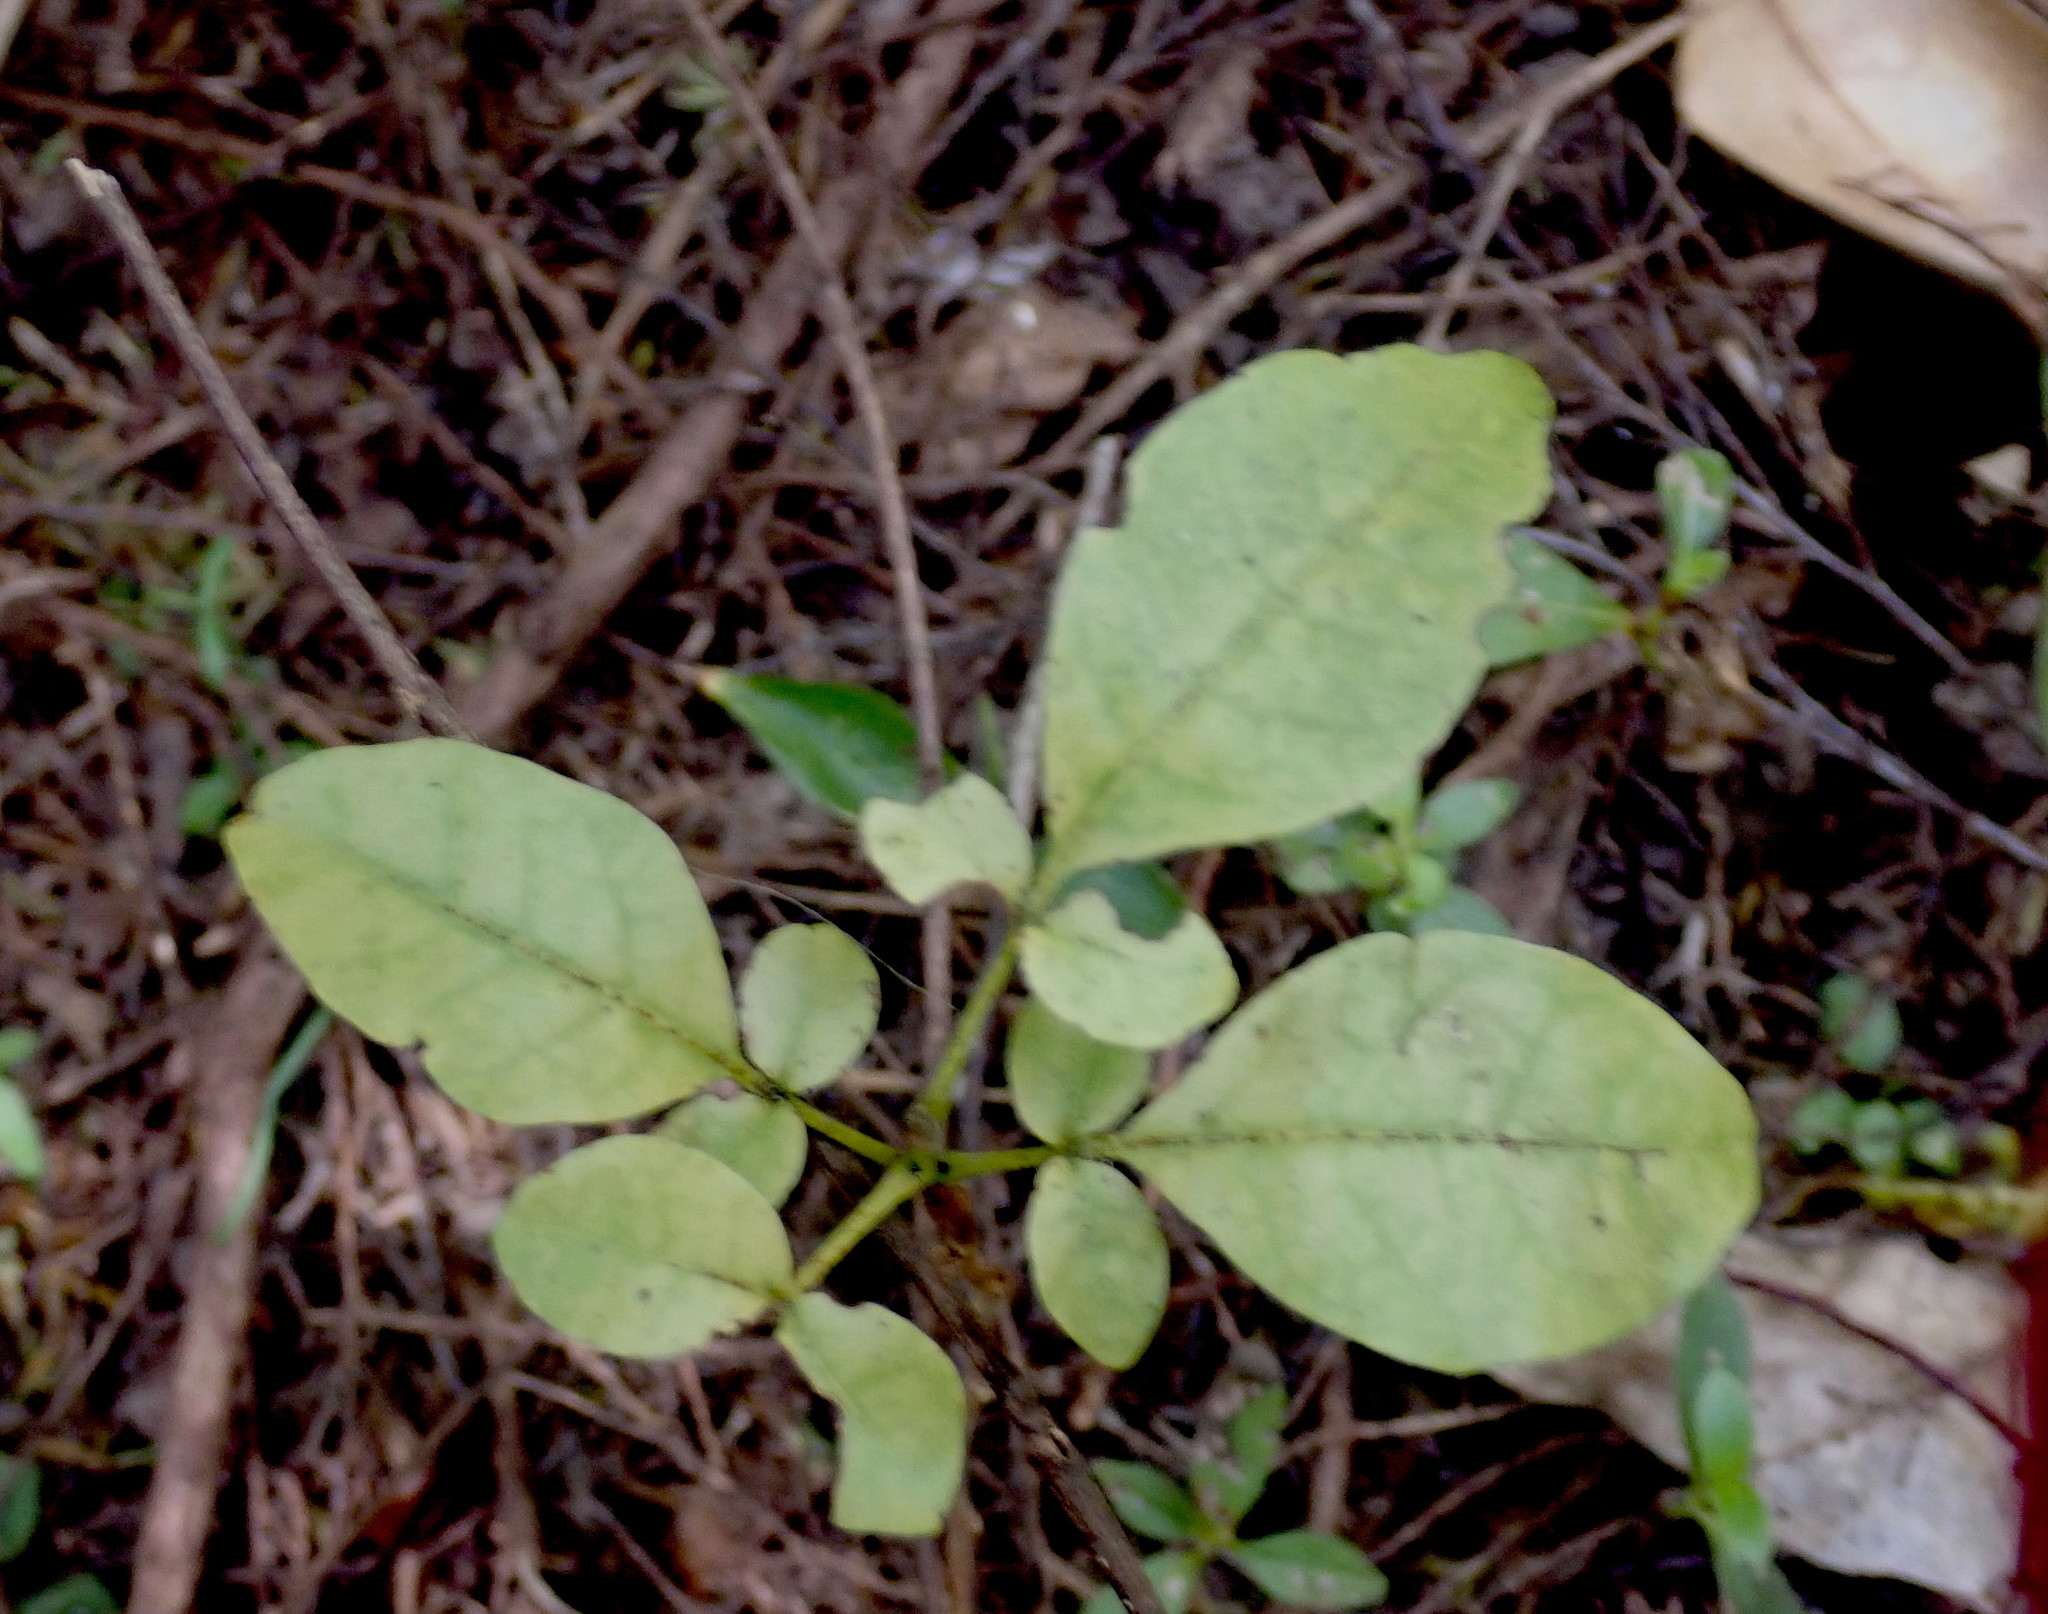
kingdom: Plantae
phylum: Tracheophyta
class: Magnoliopsida
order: Sapindales
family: Meliaceae
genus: Didymocheton
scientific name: Didymocheton spectabilis
